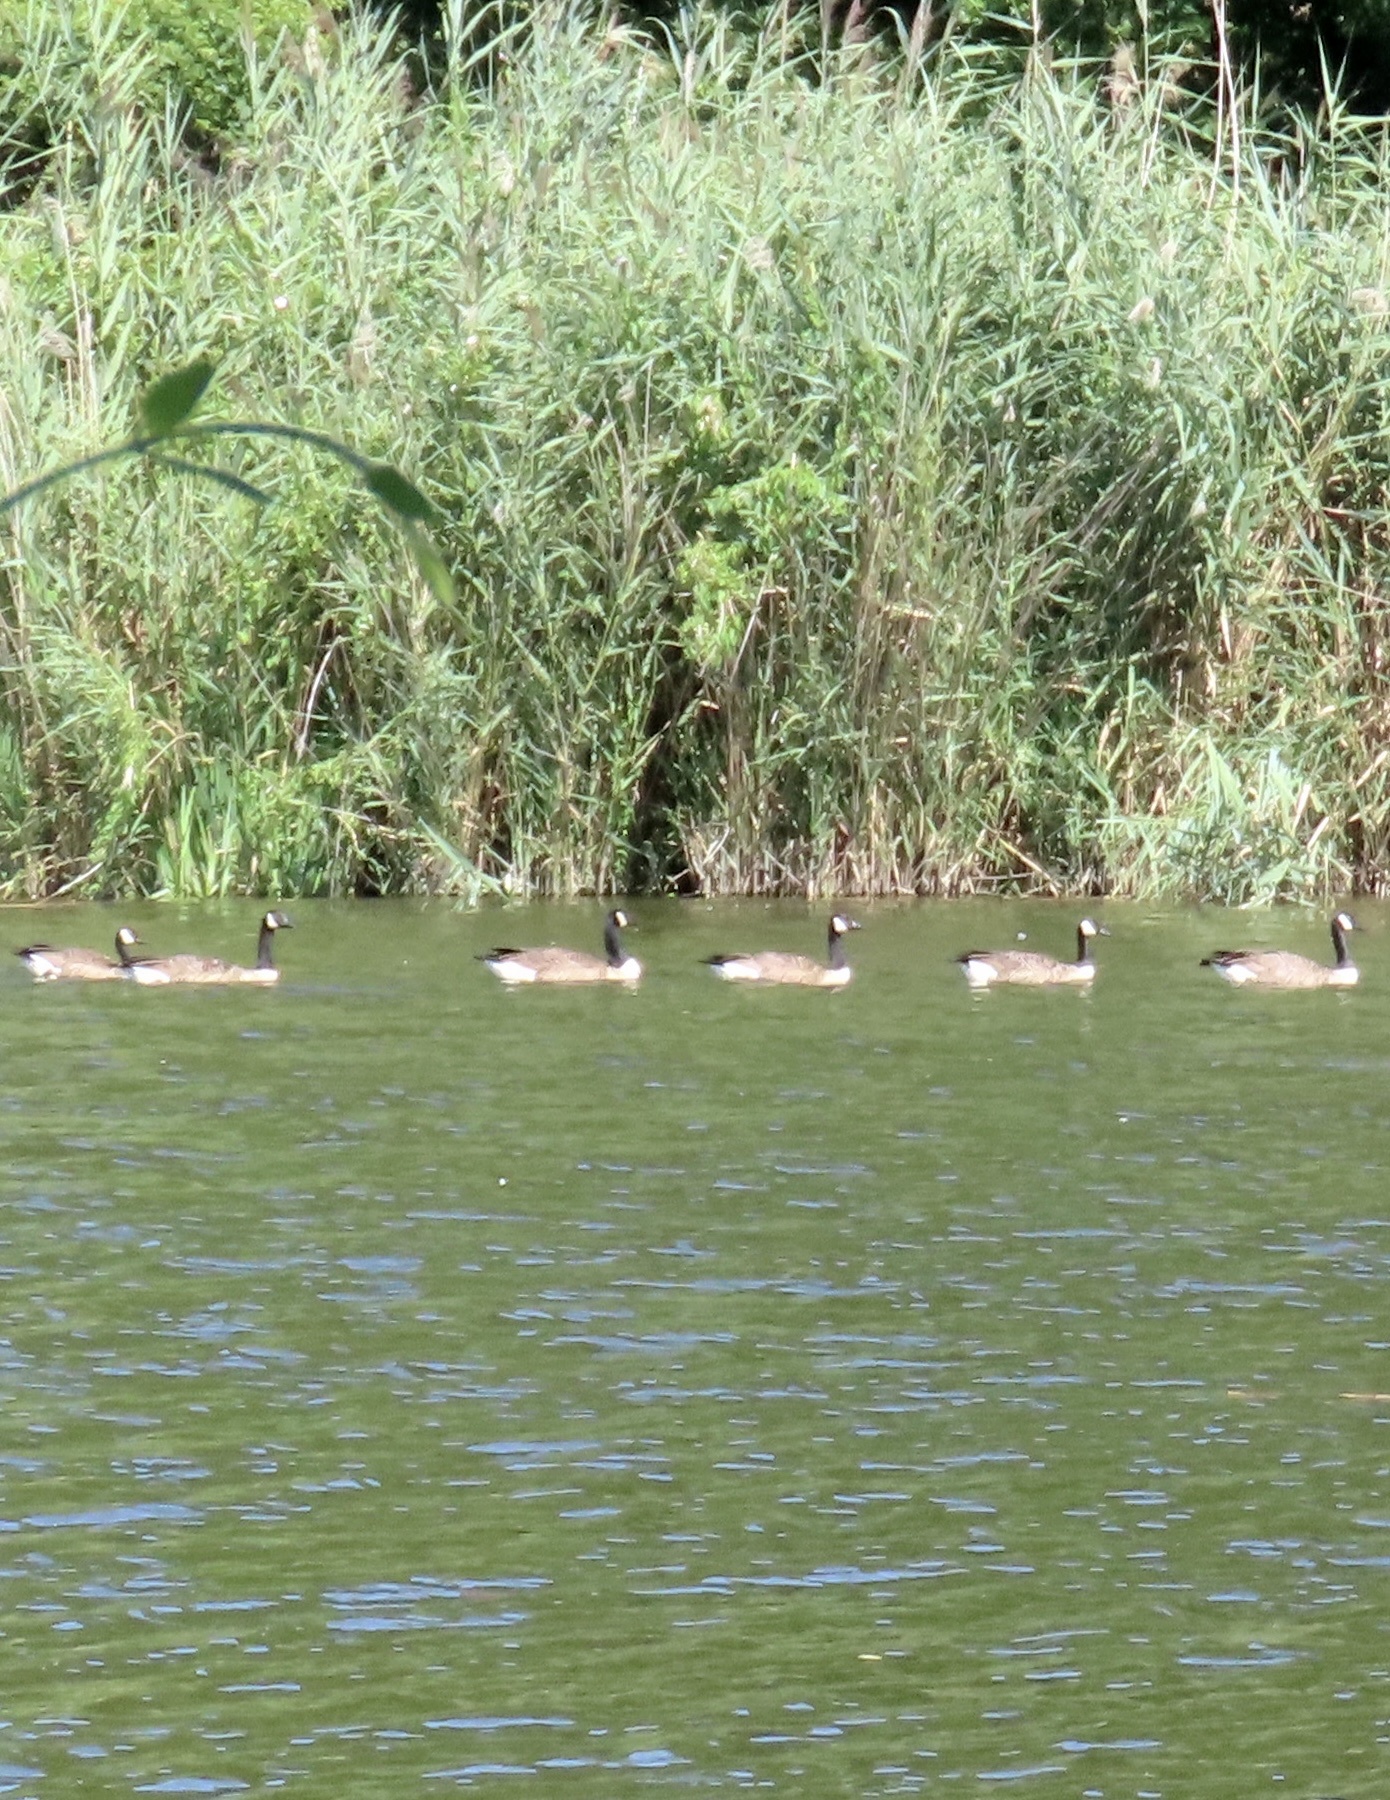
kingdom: Animalia
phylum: Chordata
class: Aves
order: Anseriformes
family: Anatidae
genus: Branta
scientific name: Branta canadensis
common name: Canada goose
